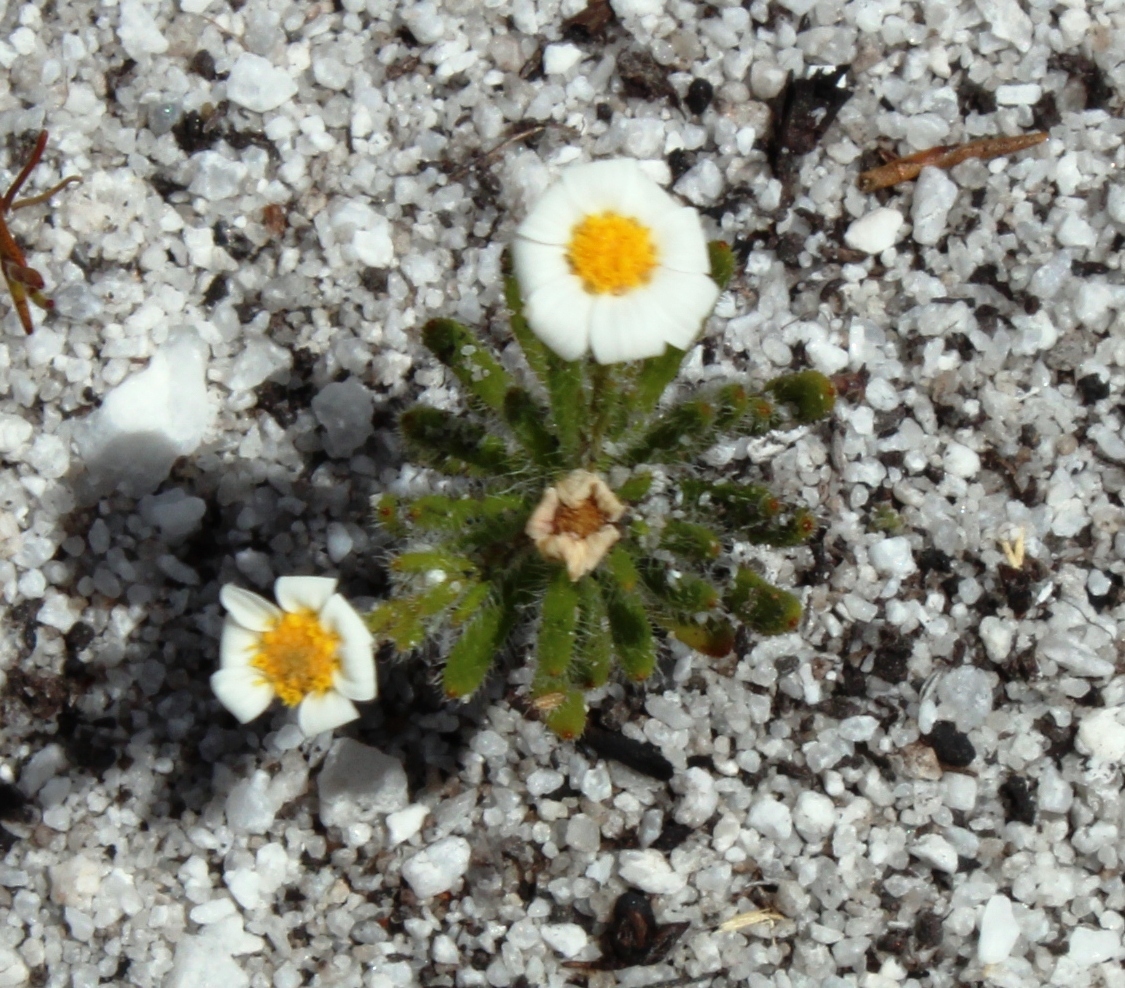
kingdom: Plantae
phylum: Tracheophyta
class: Magnoliopsida
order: Asterales
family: Asteraceae
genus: Zyrphelis
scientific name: Zyrphelis foliosa
